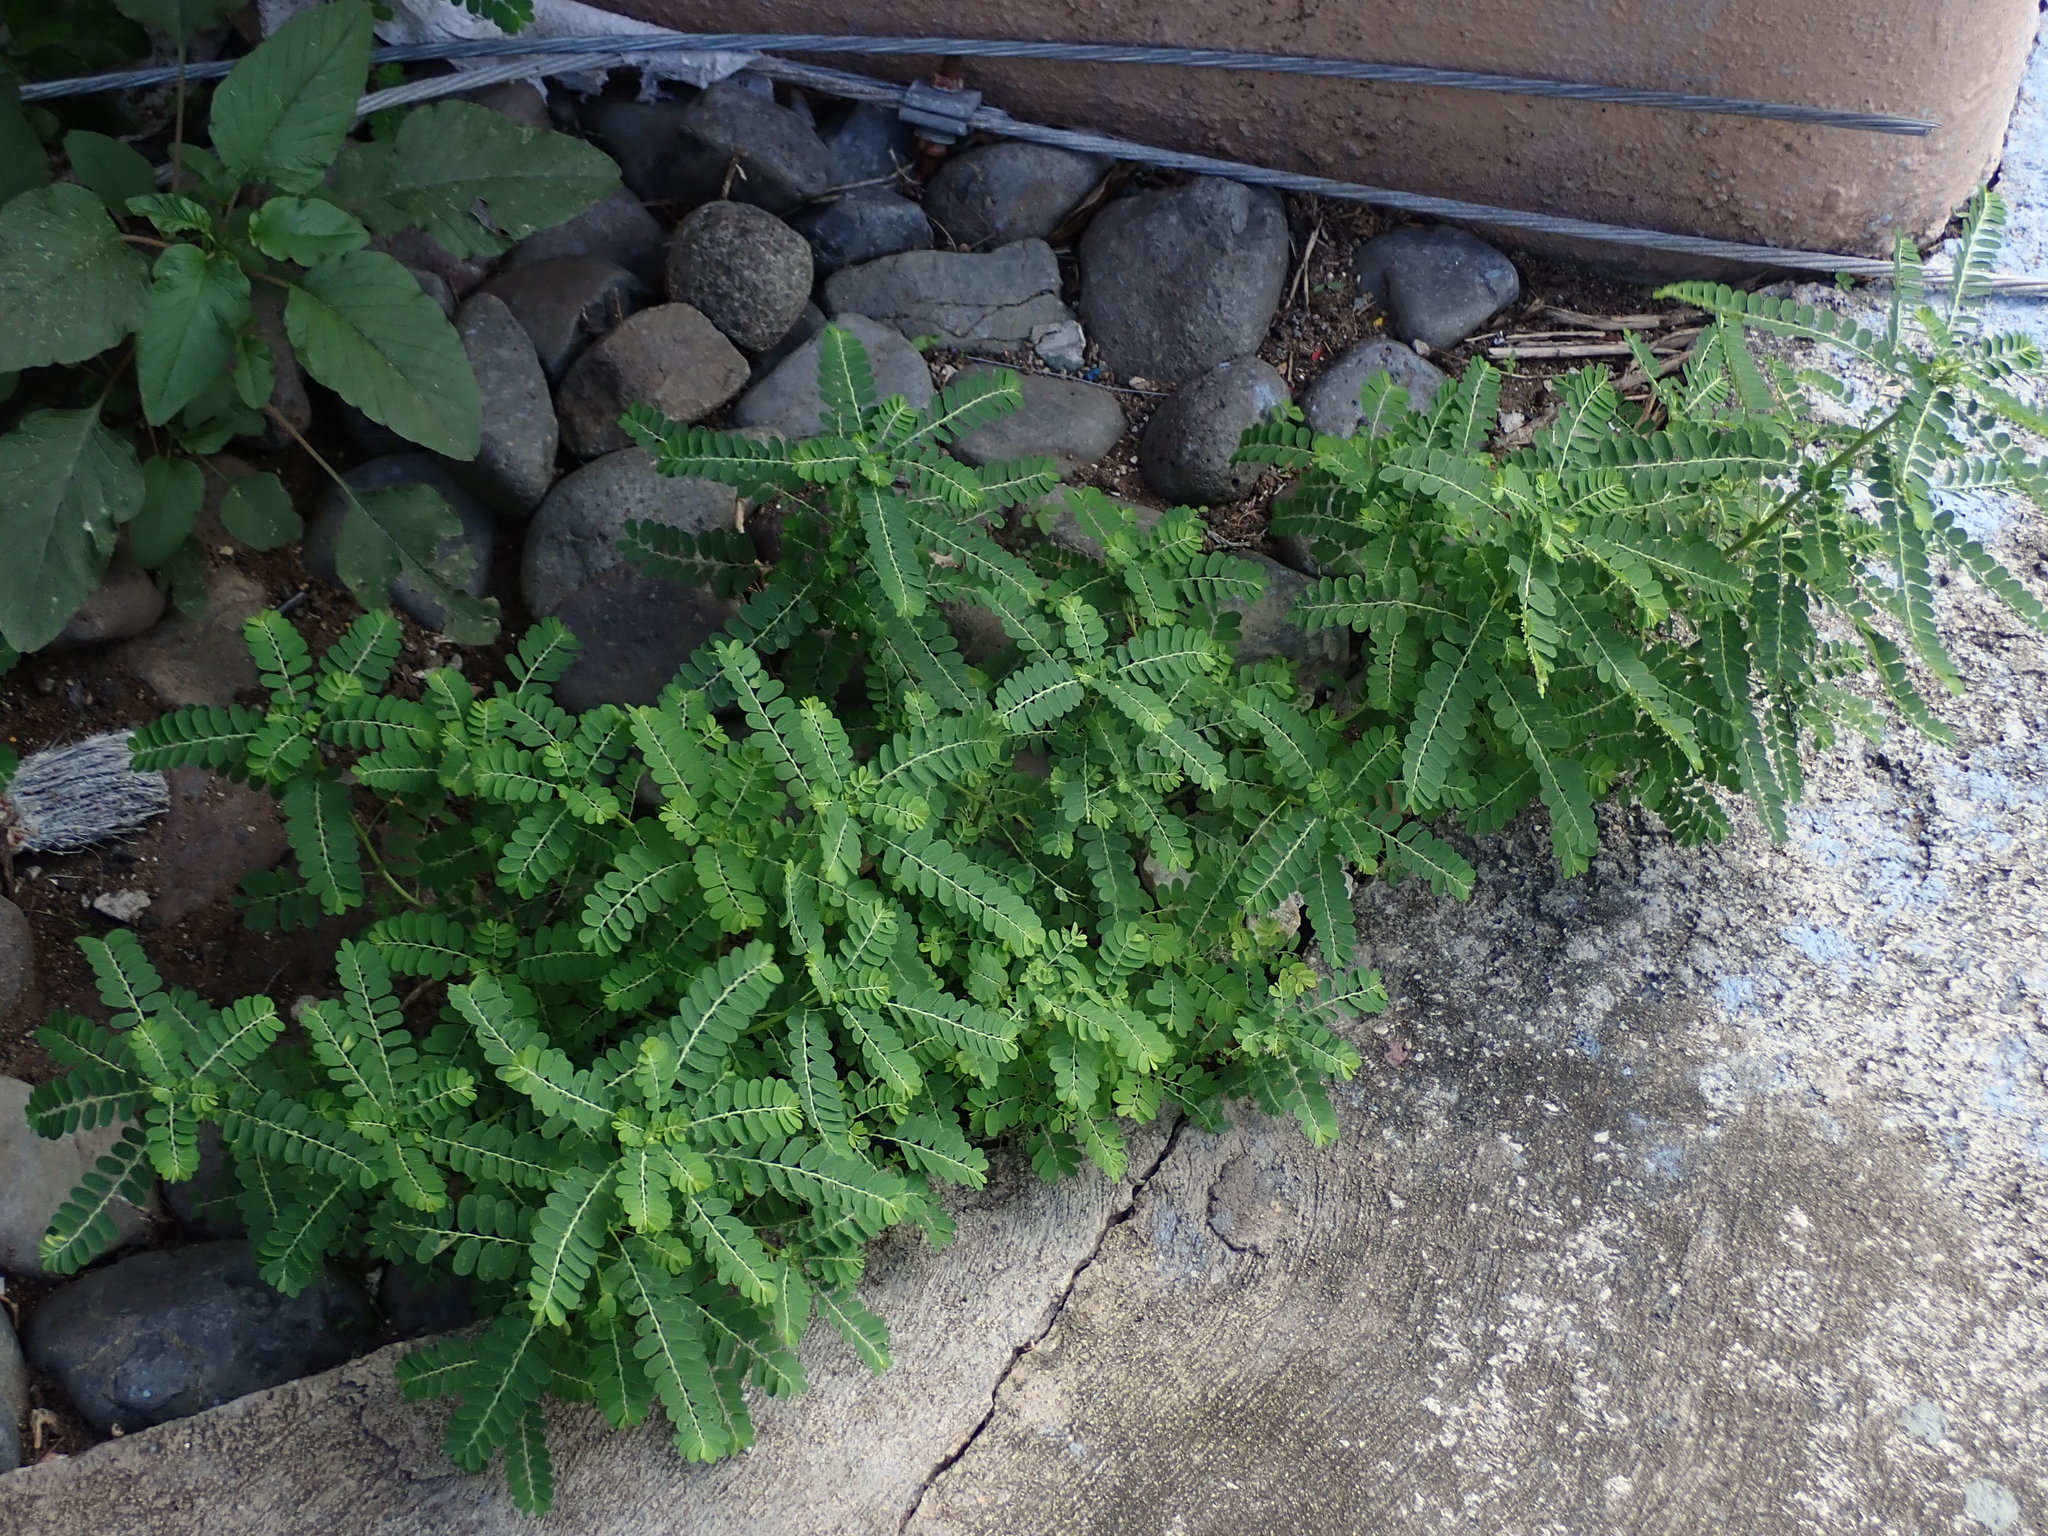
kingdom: Plantae
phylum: Tracheophyta
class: Magnoliopsida
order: Malpighiales
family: Phyllanthaceae
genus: Phyllanthus
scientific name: Phyllanthus amarus
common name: Carry me seed
